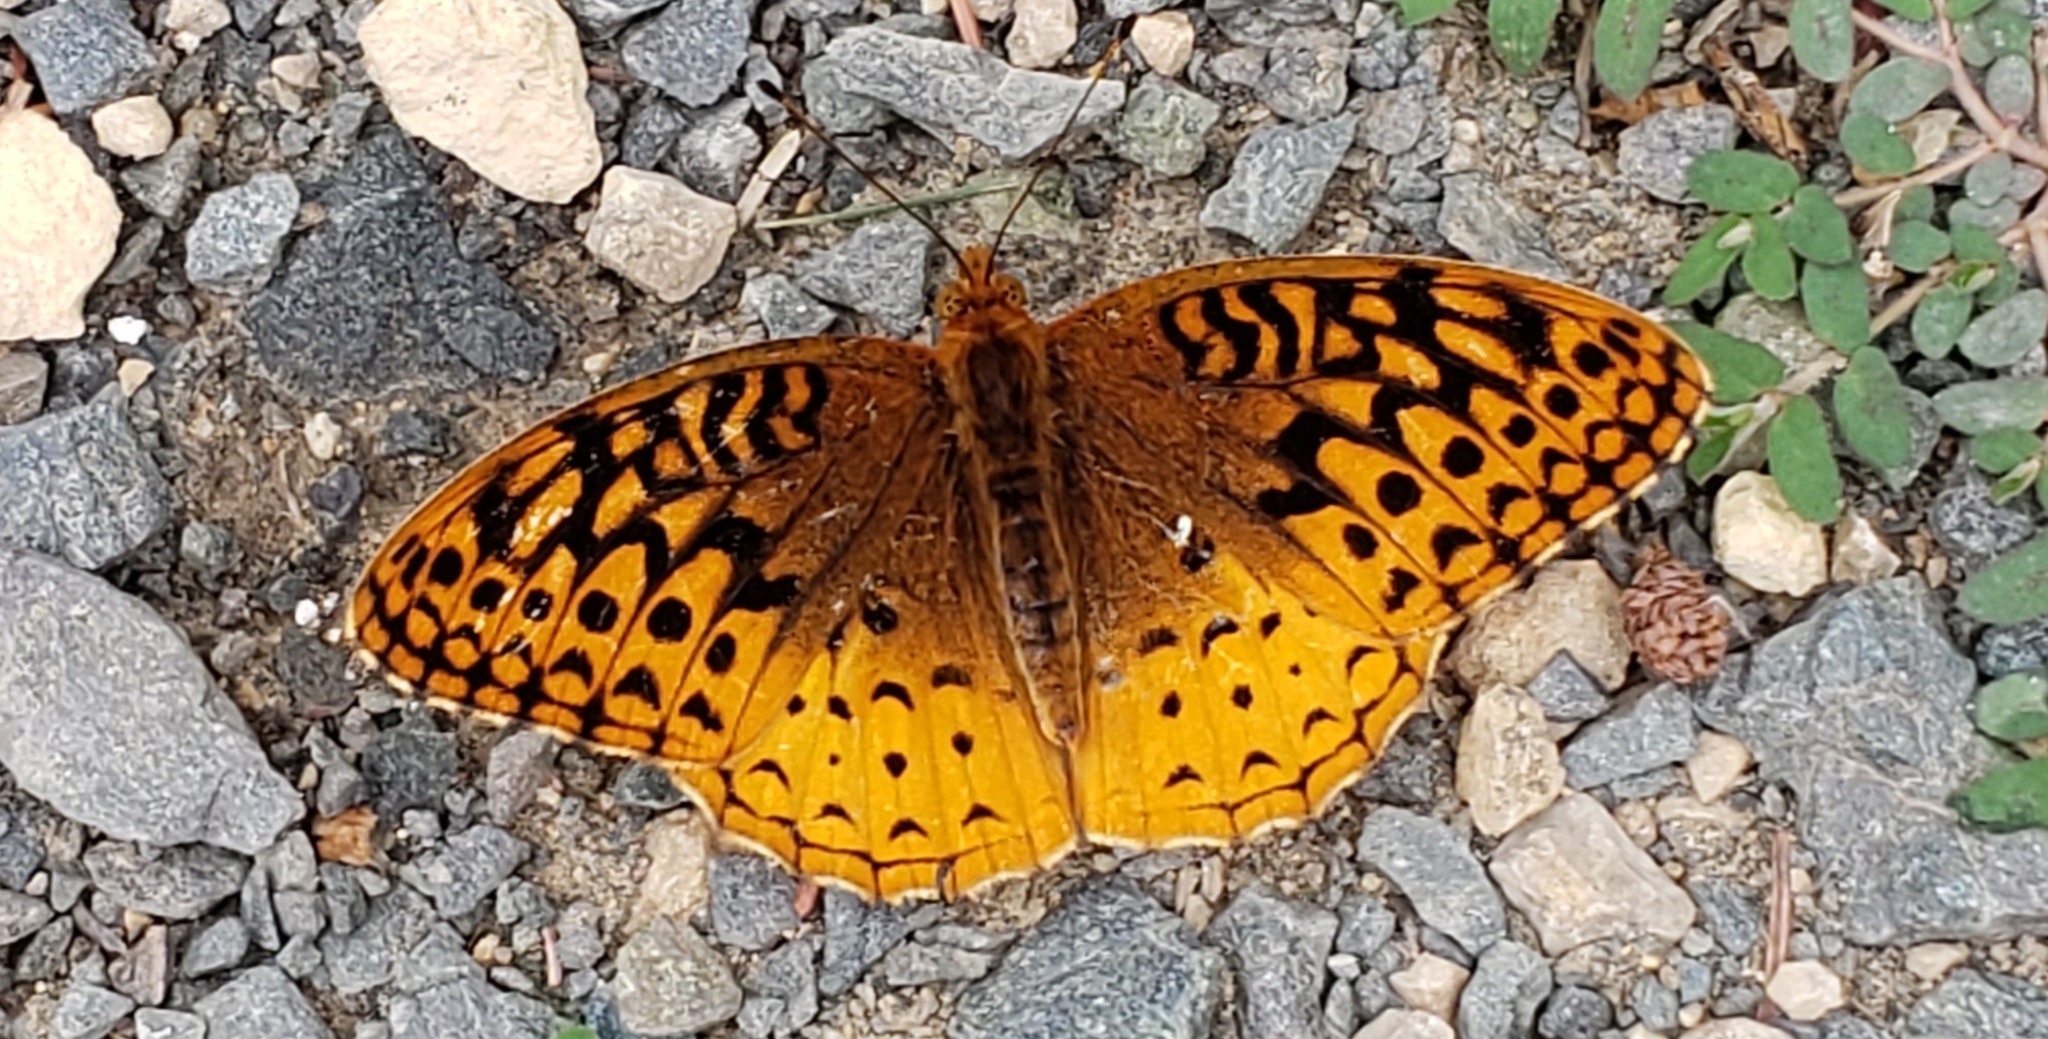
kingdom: Animalia
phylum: Arthropoda
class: Insecta
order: Lepidoptera
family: Nymphalidae
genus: Speyeria
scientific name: Speyeria cybele
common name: Great spangled fritillary
